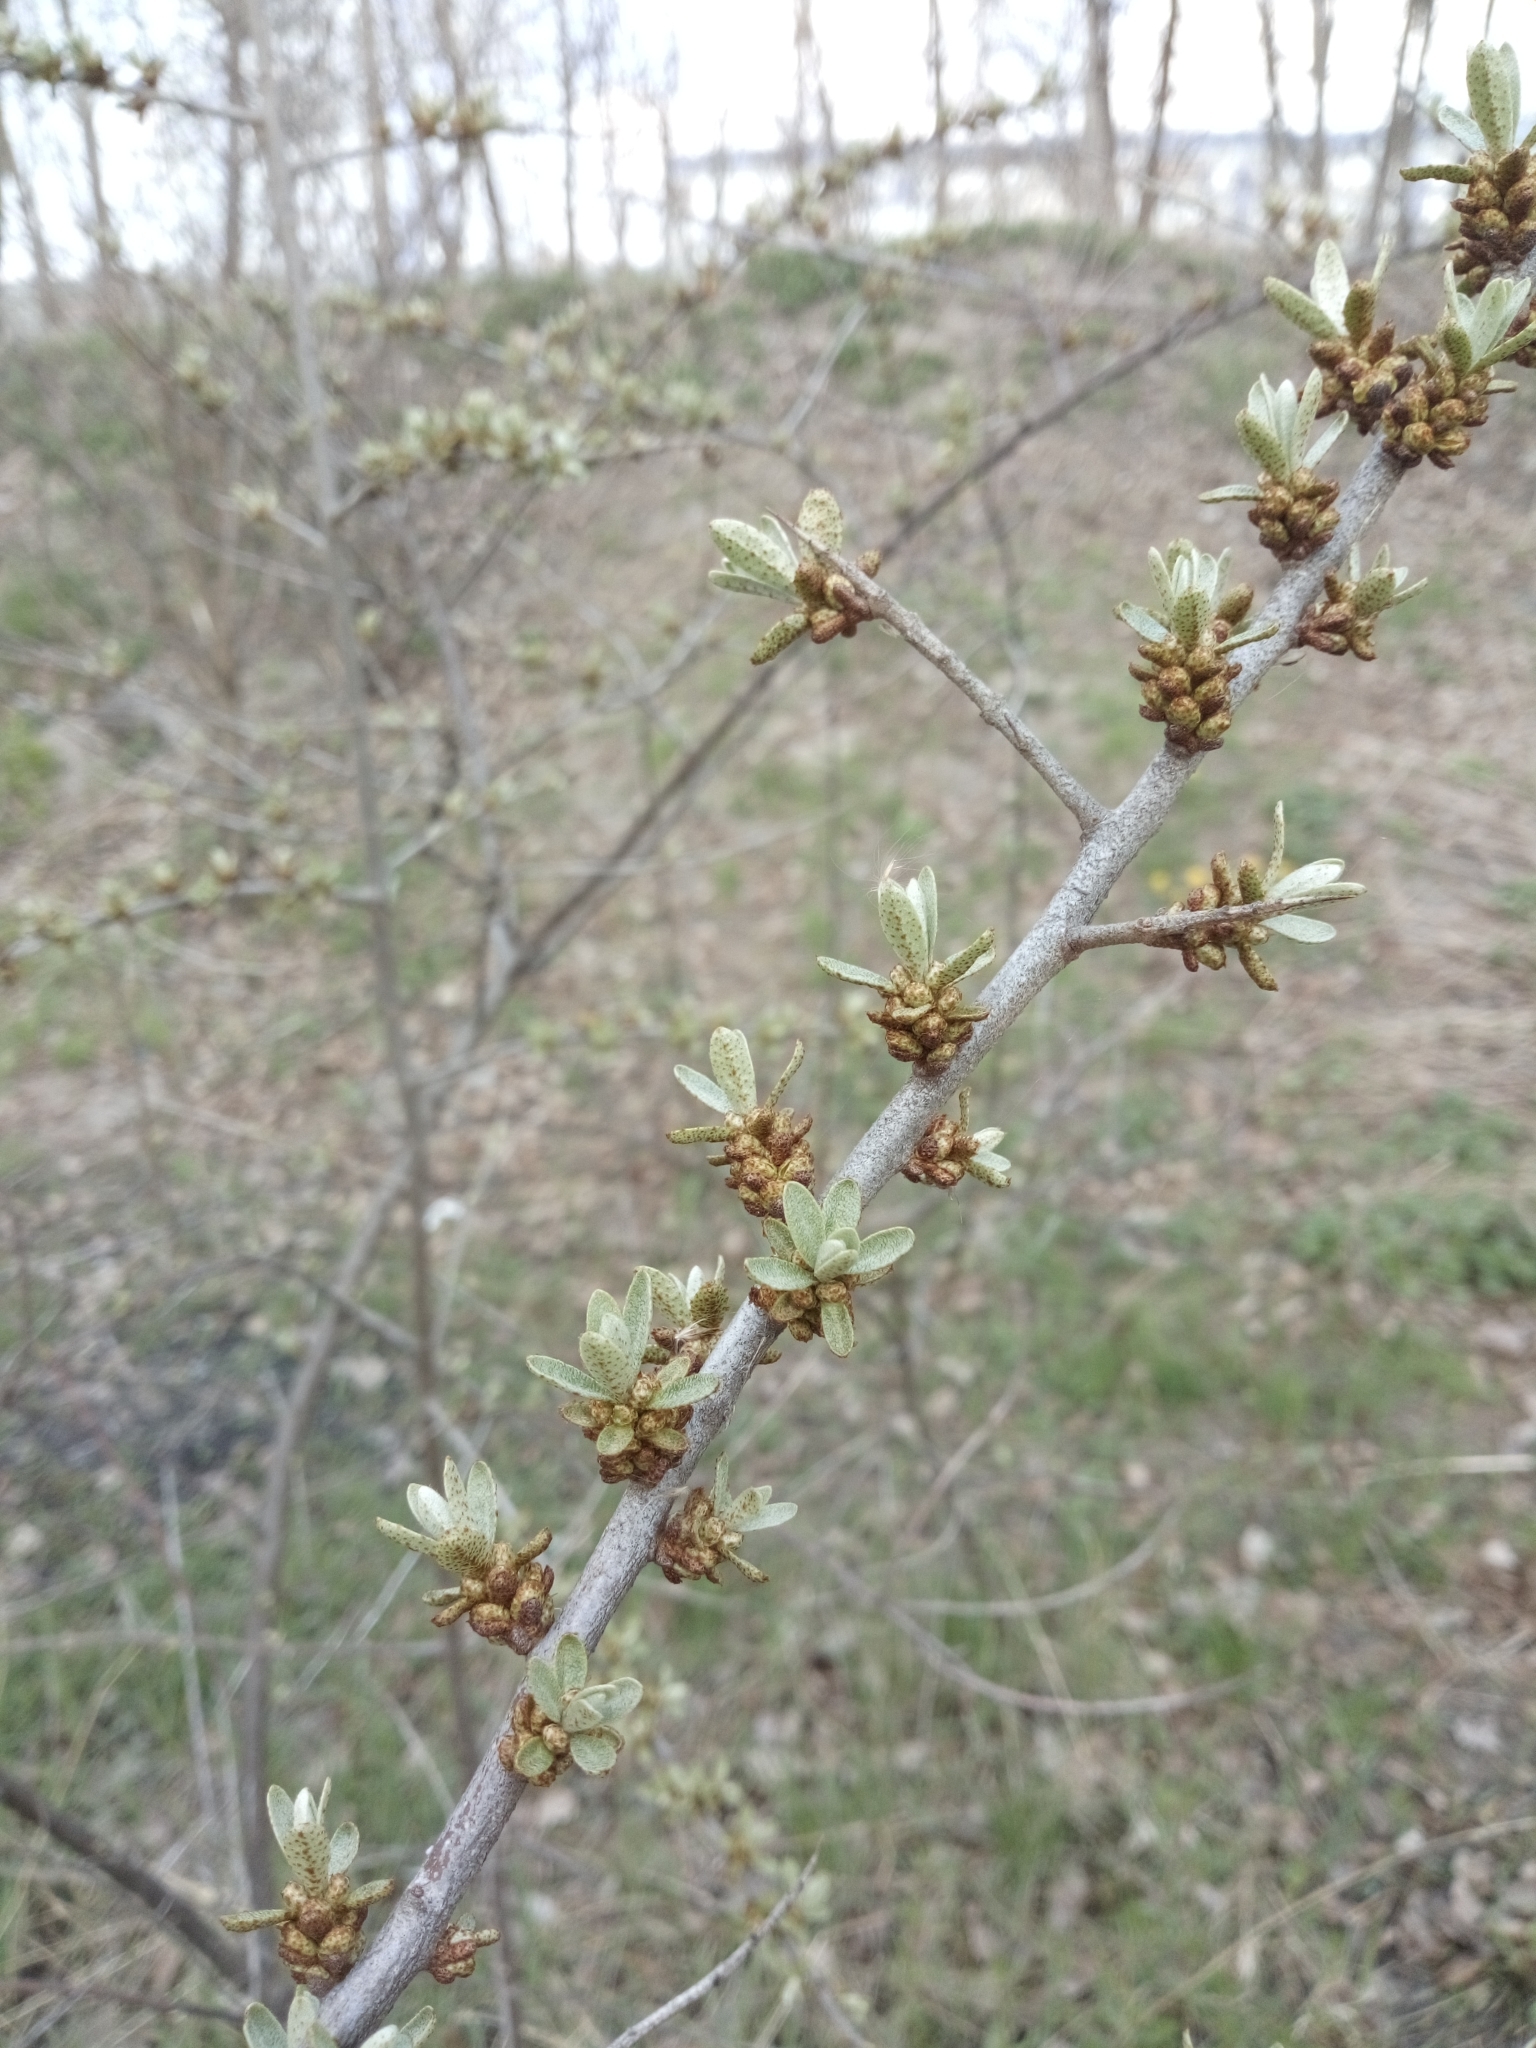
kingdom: Plantae
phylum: Tracheophyta
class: Magnoliopsida
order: Rosales
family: Elaeagnaceae
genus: Hippophae
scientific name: Hippophae rhamnoides
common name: Sea-buckthorn
